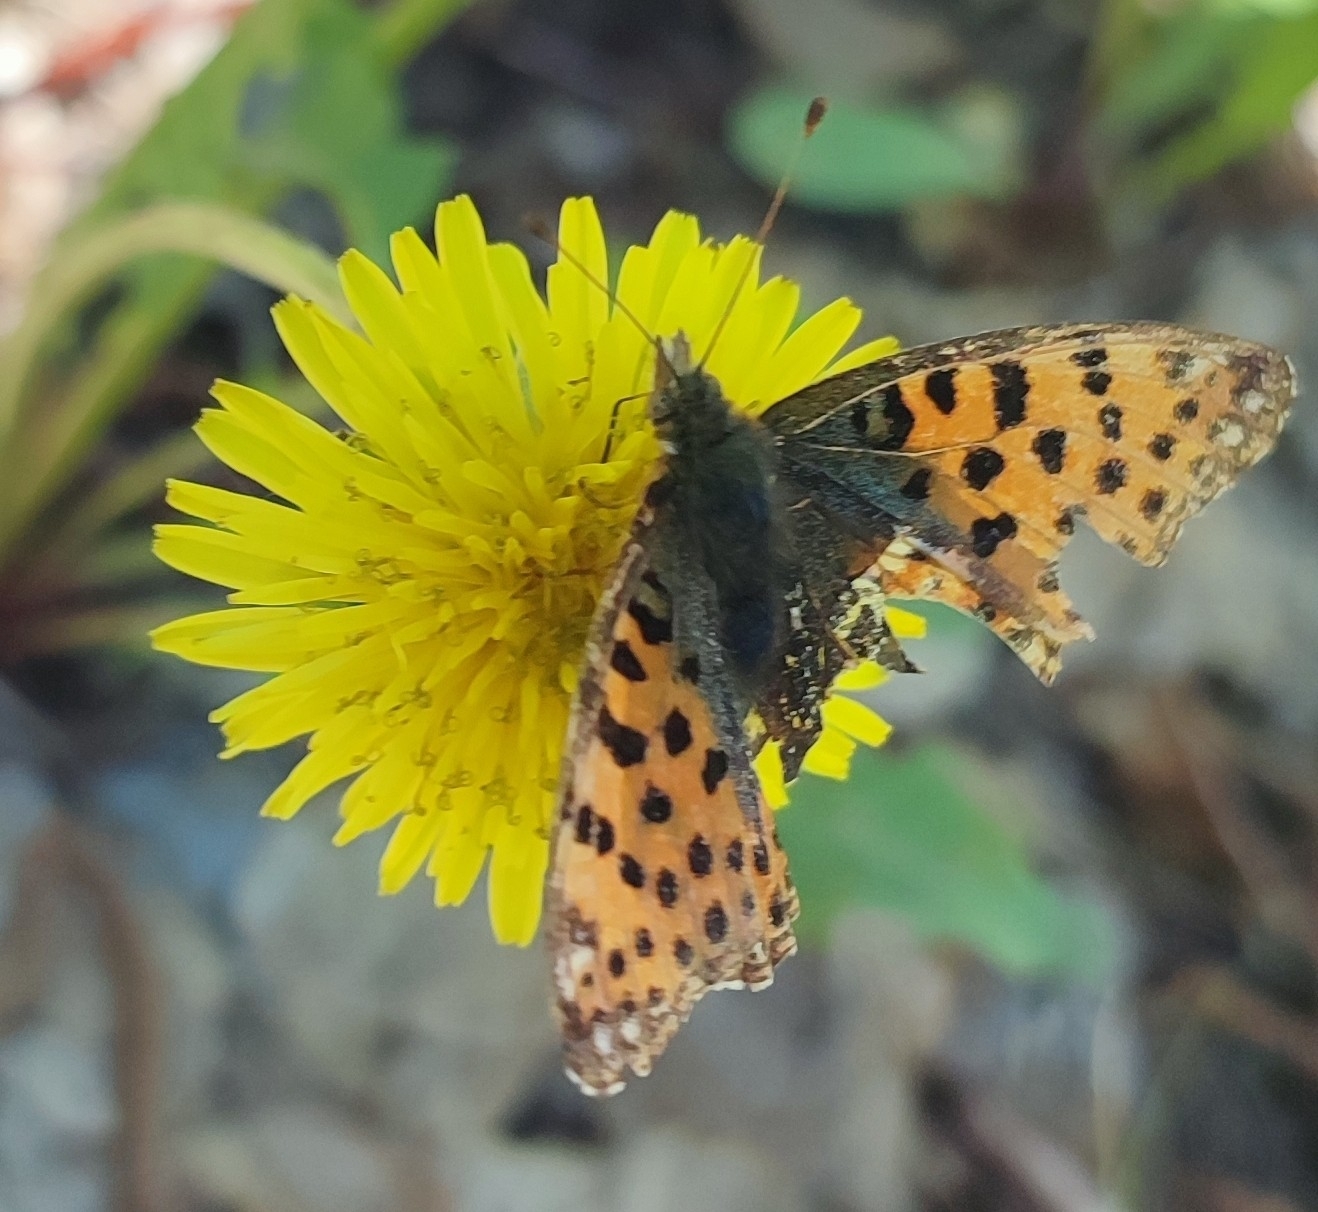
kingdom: Animalia
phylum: Arthropoda
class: Insecta
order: Lepidoptera
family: Nymphalidae
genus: Issoria
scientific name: Issoria lathonia
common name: Queen of spain fritillary
